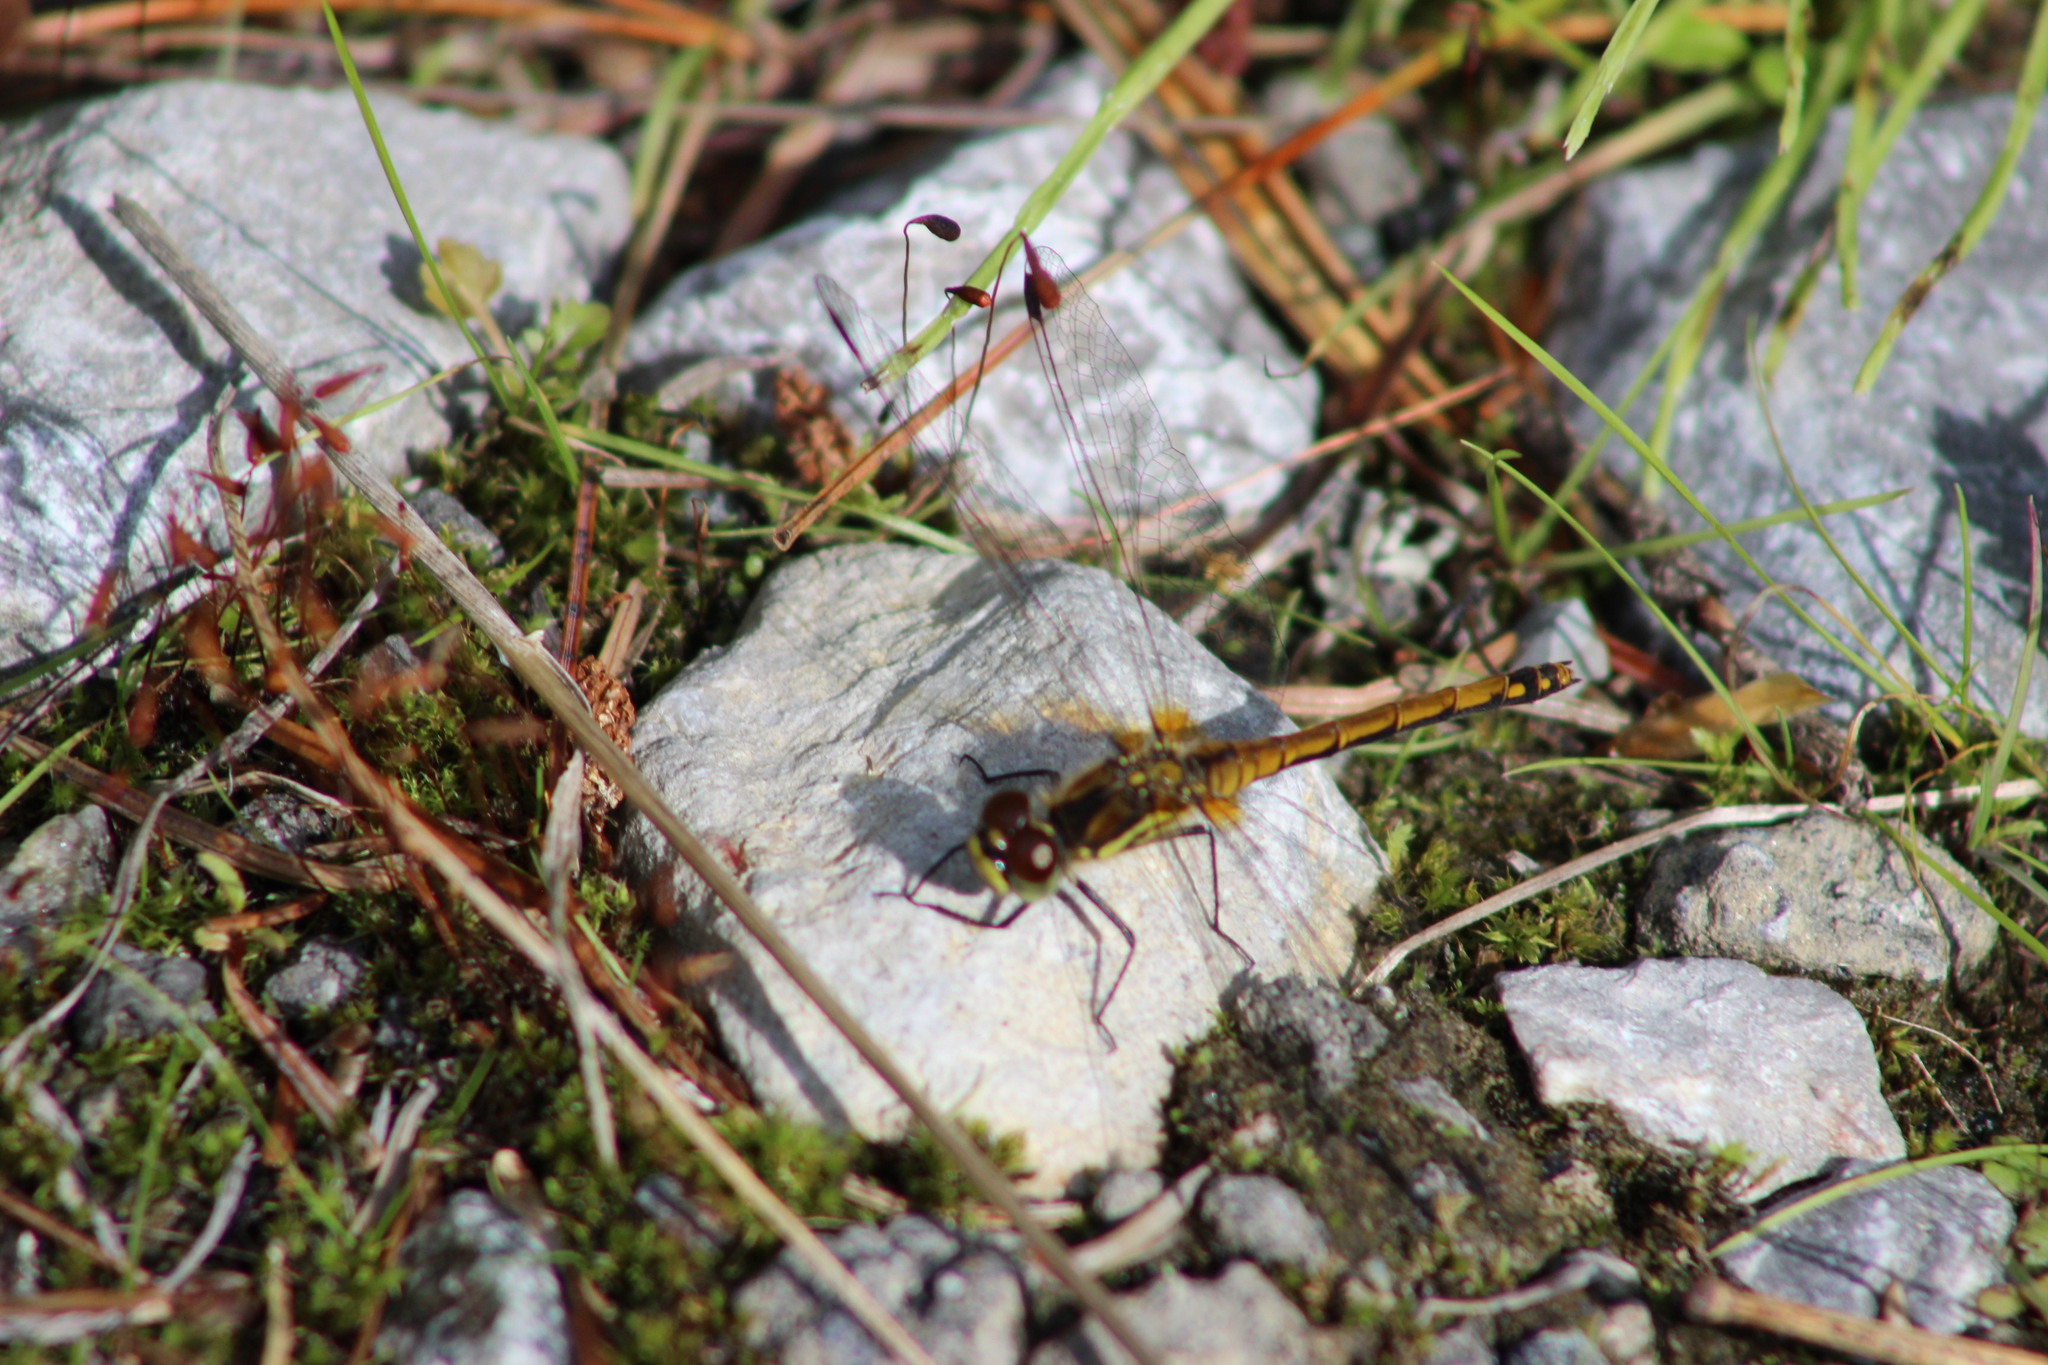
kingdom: Animalia
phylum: Arthropoda
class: Insecta
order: Odonata
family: Libellulidae
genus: Sympetrum
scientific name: Sympetrum danae
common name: Black darter
